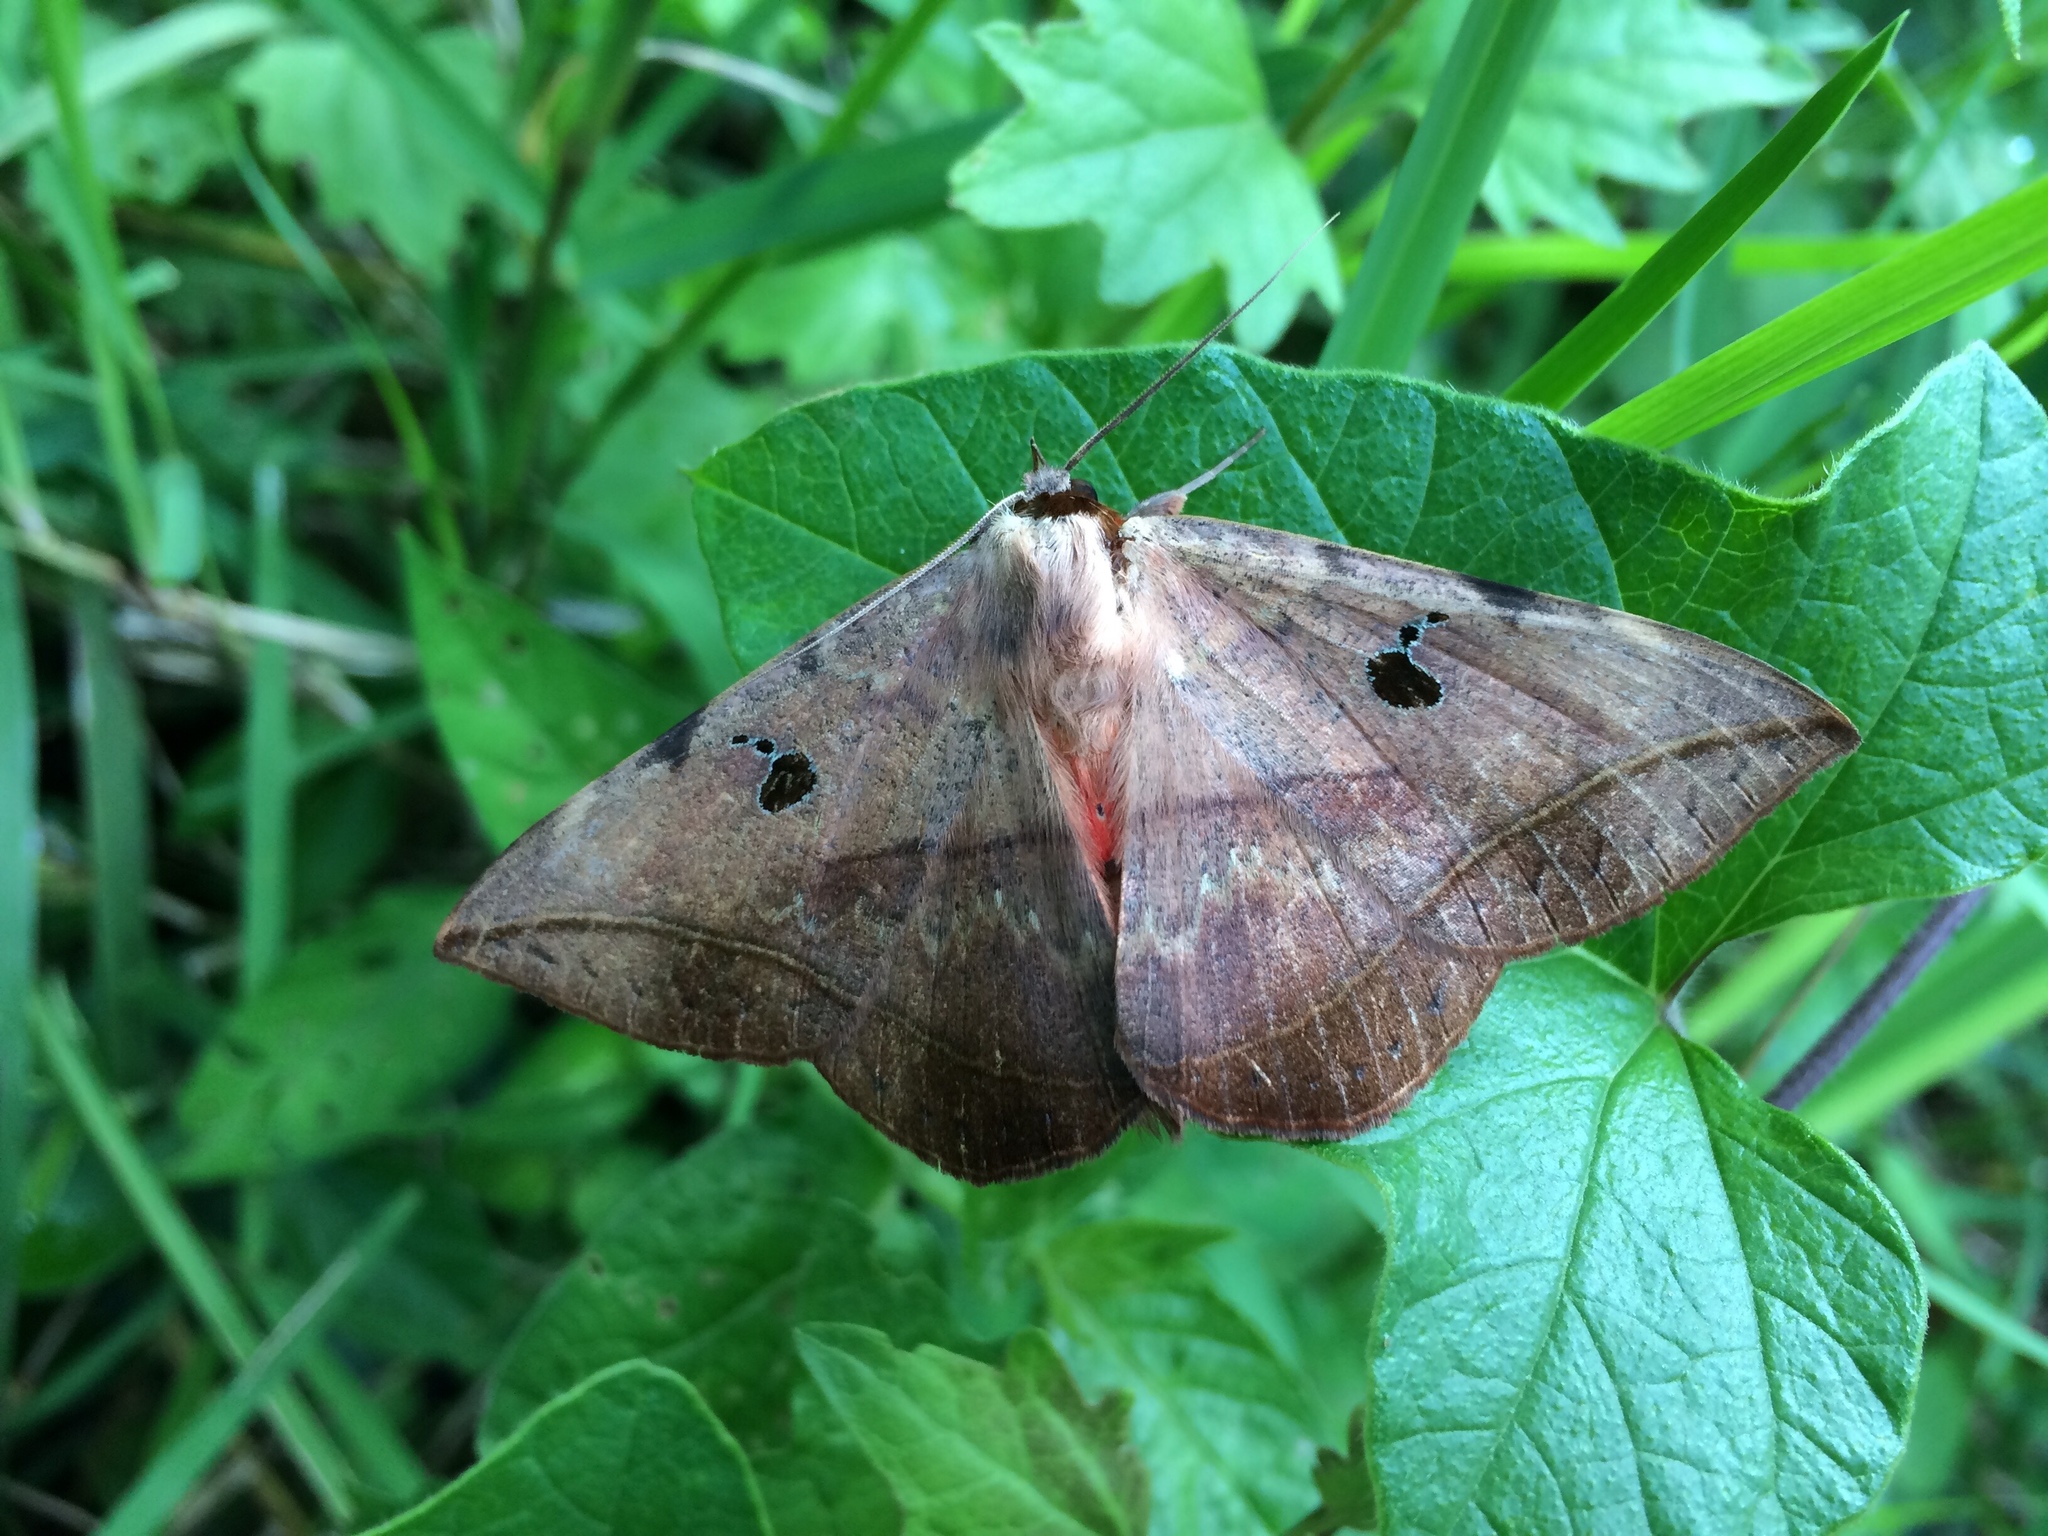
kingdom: Animalia
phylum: Arthropoda
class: Insecta
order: Lepidoptera
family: Erebidae
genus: Hypopyra
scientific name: Hypopyra capensis
